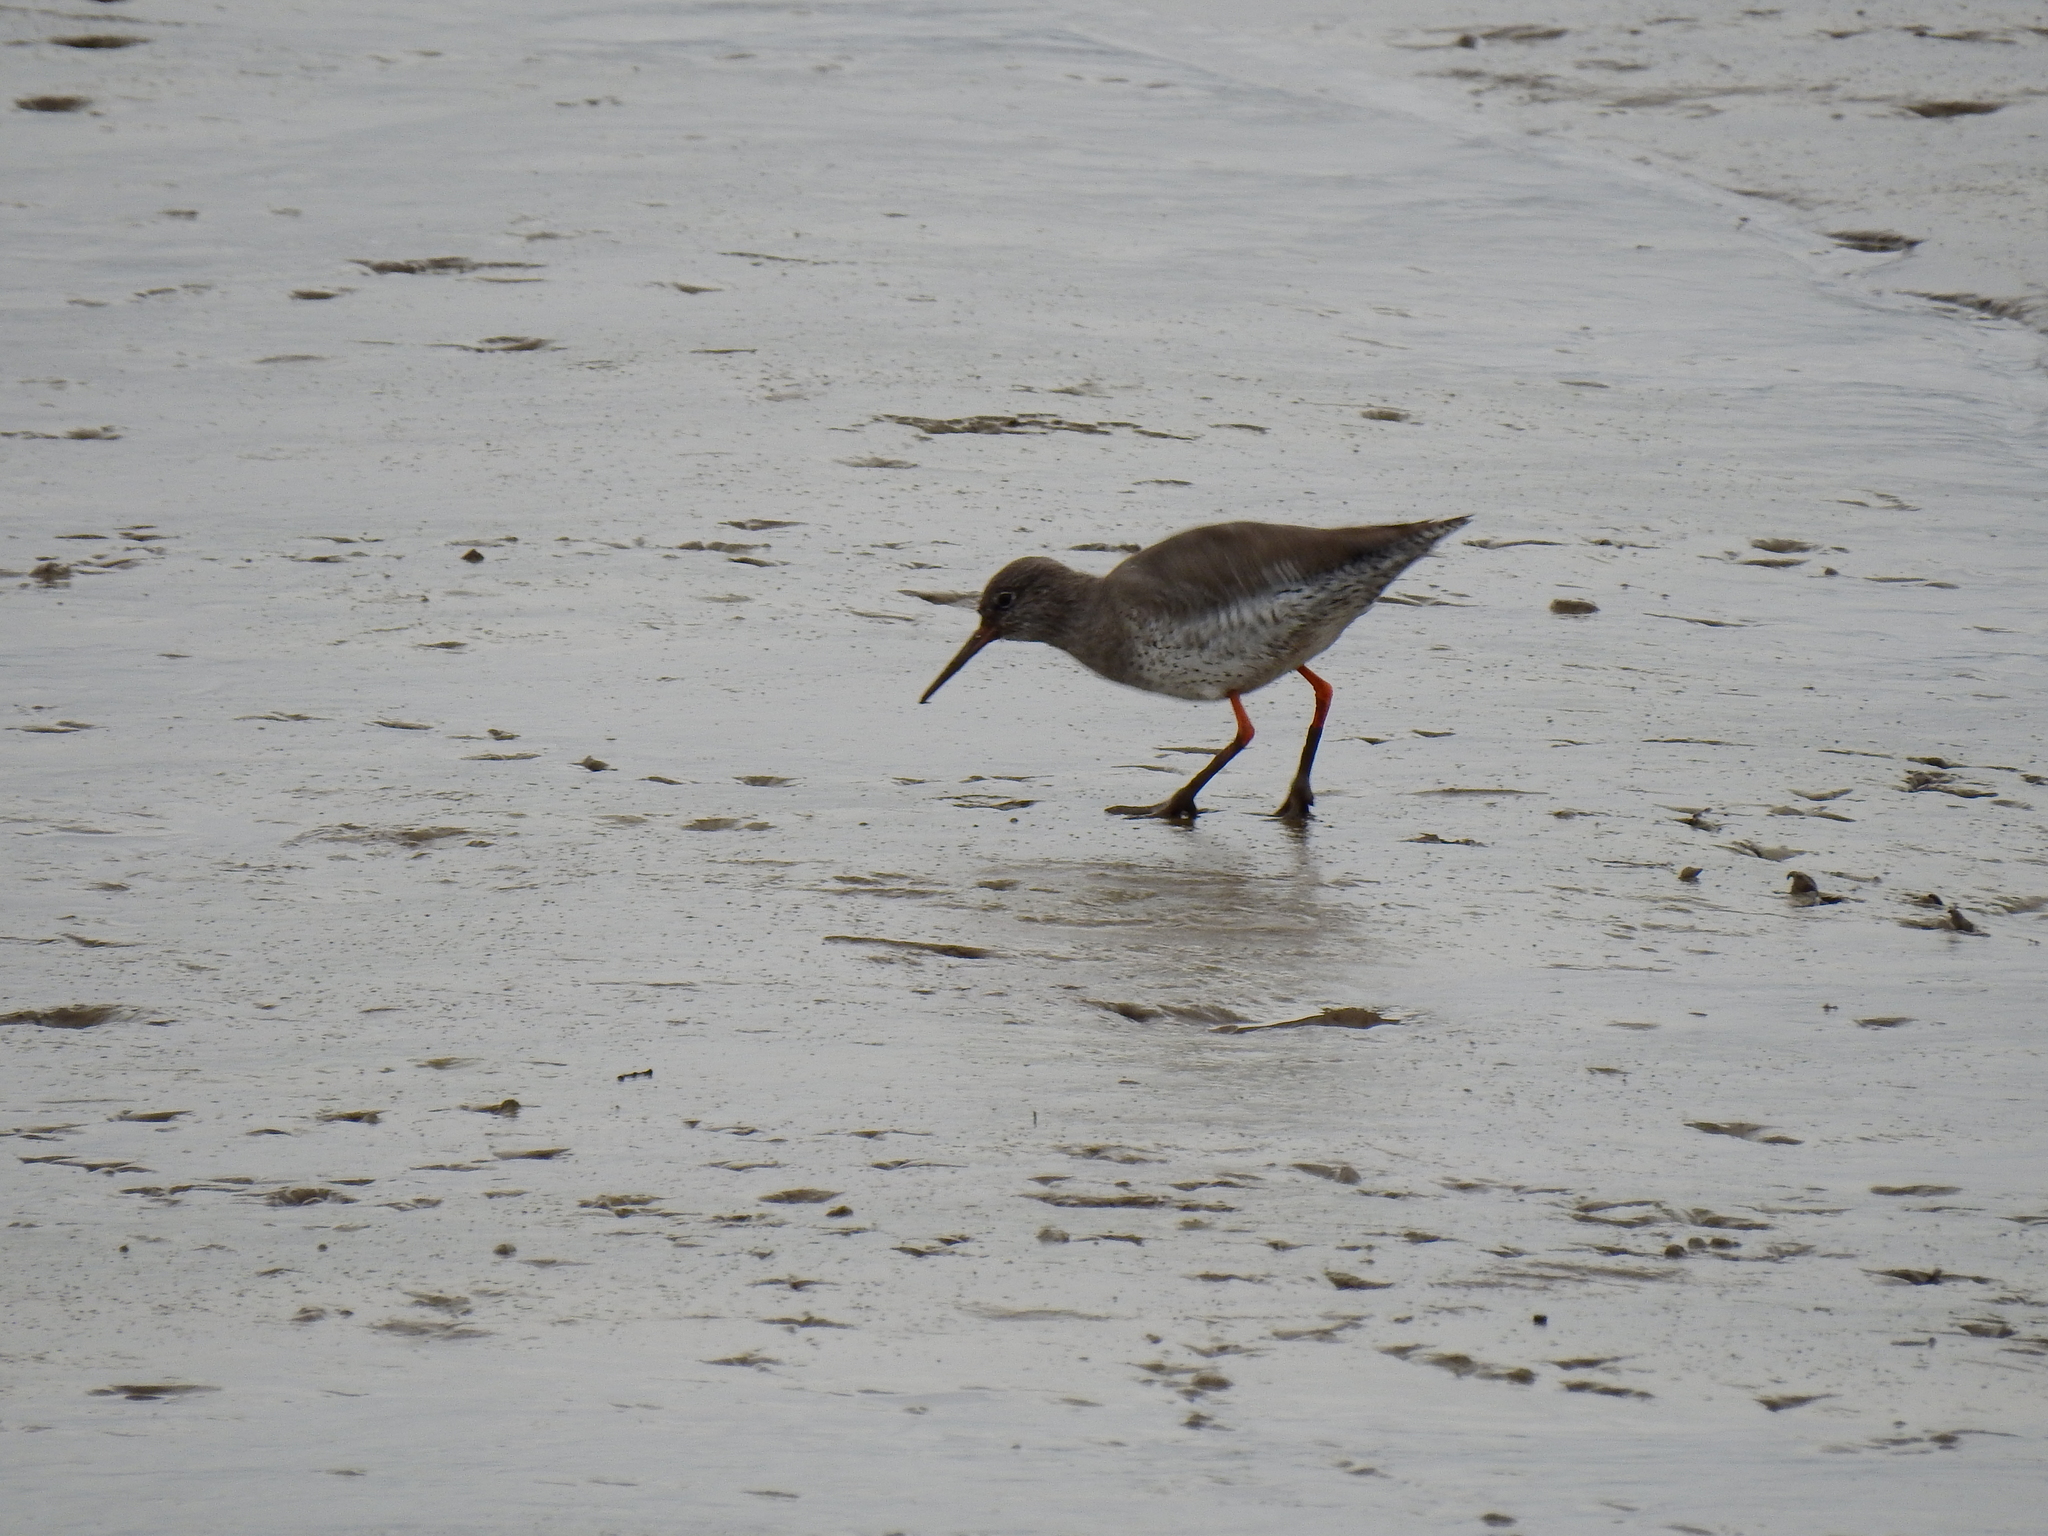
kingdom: Animalia
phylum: Chordata
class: Aves
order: Charadriiformes
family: Scolopacidae
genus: Tringa
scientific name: Tringa totanus
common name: Common redshank
